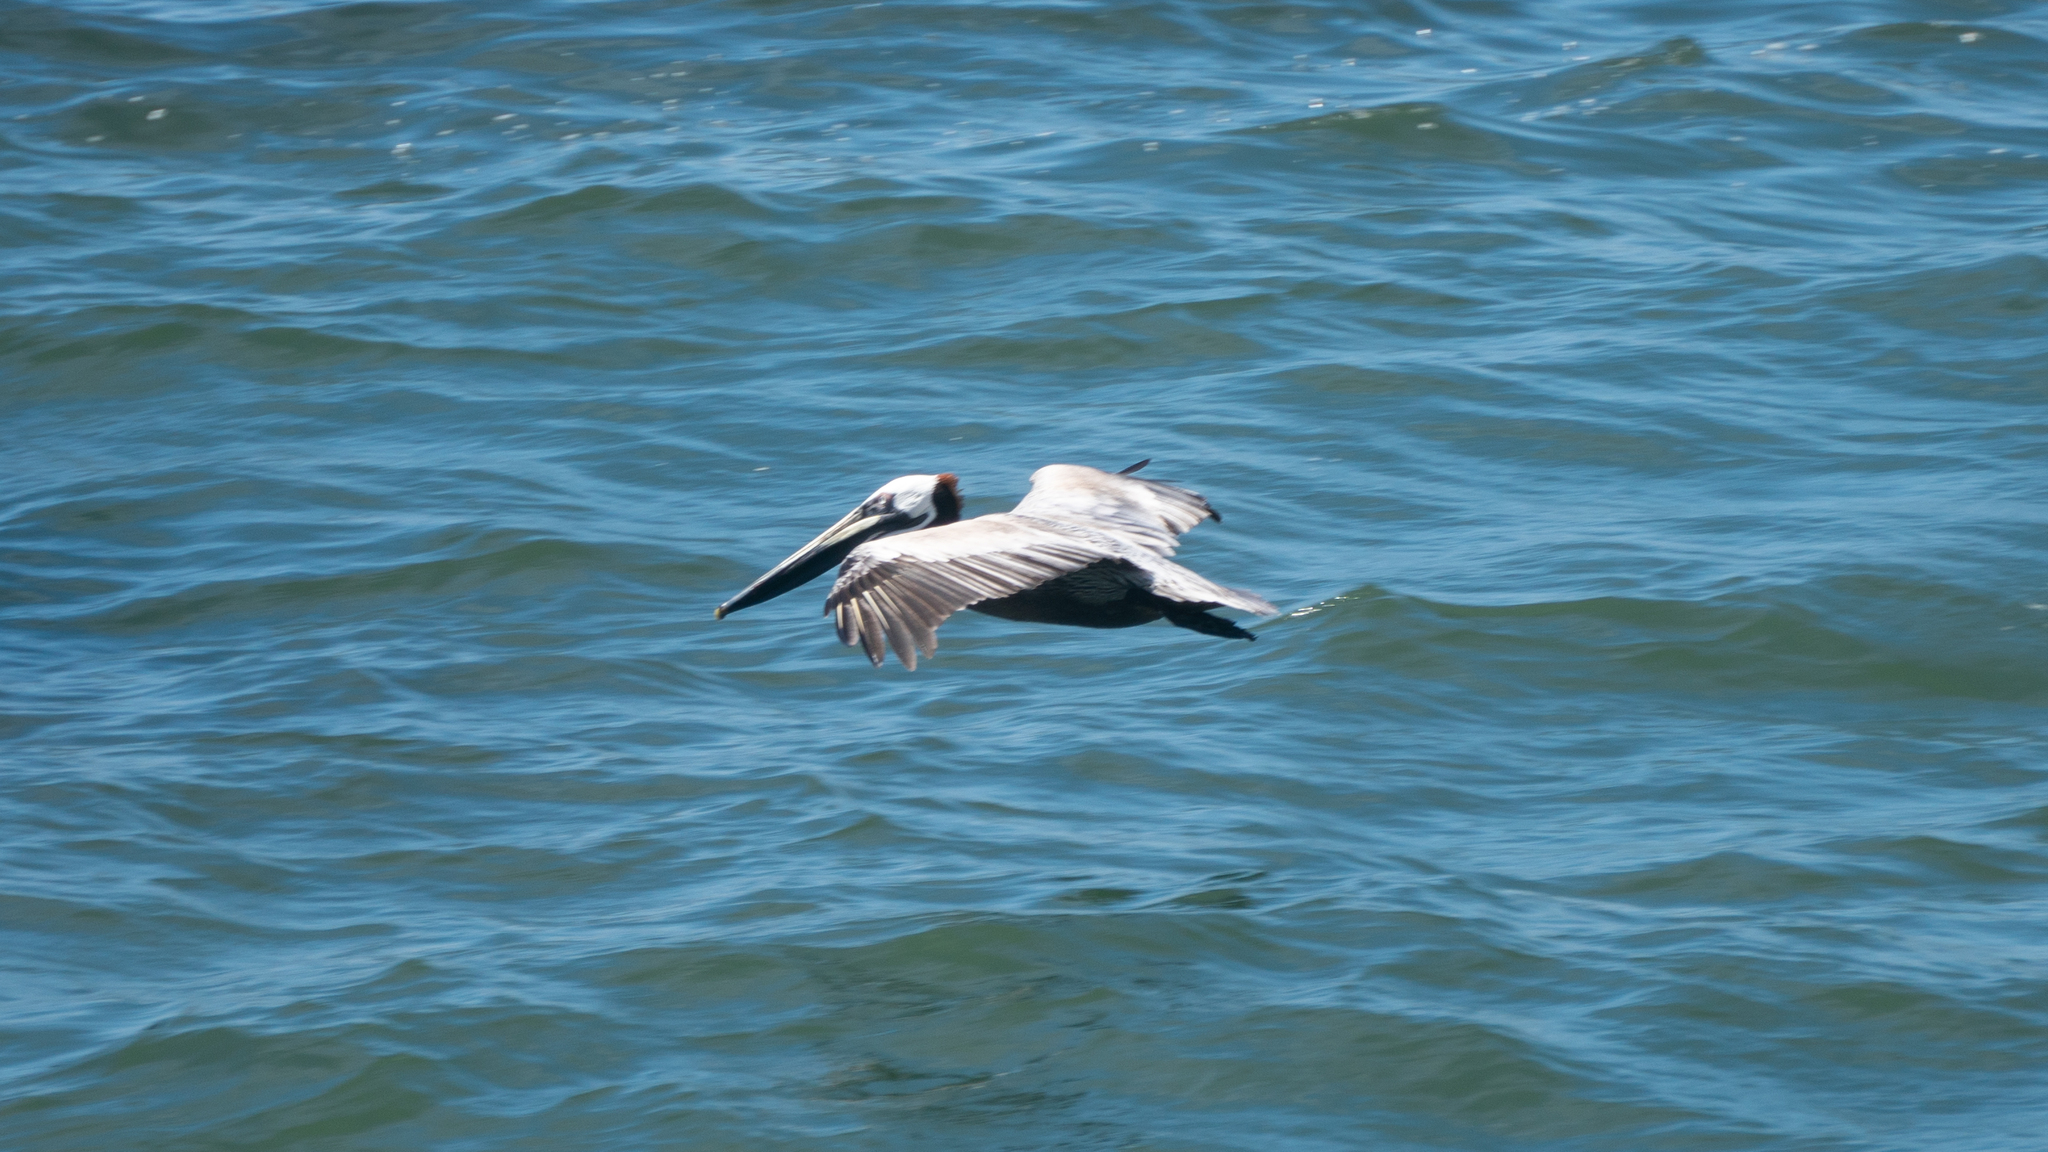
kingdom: Animalia
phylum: Chordata
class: Aves
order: Pelecaniformes
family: Pelecanidae
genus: Pelecanus
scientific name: Pelecanus occidentalis
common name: Brown pelican
